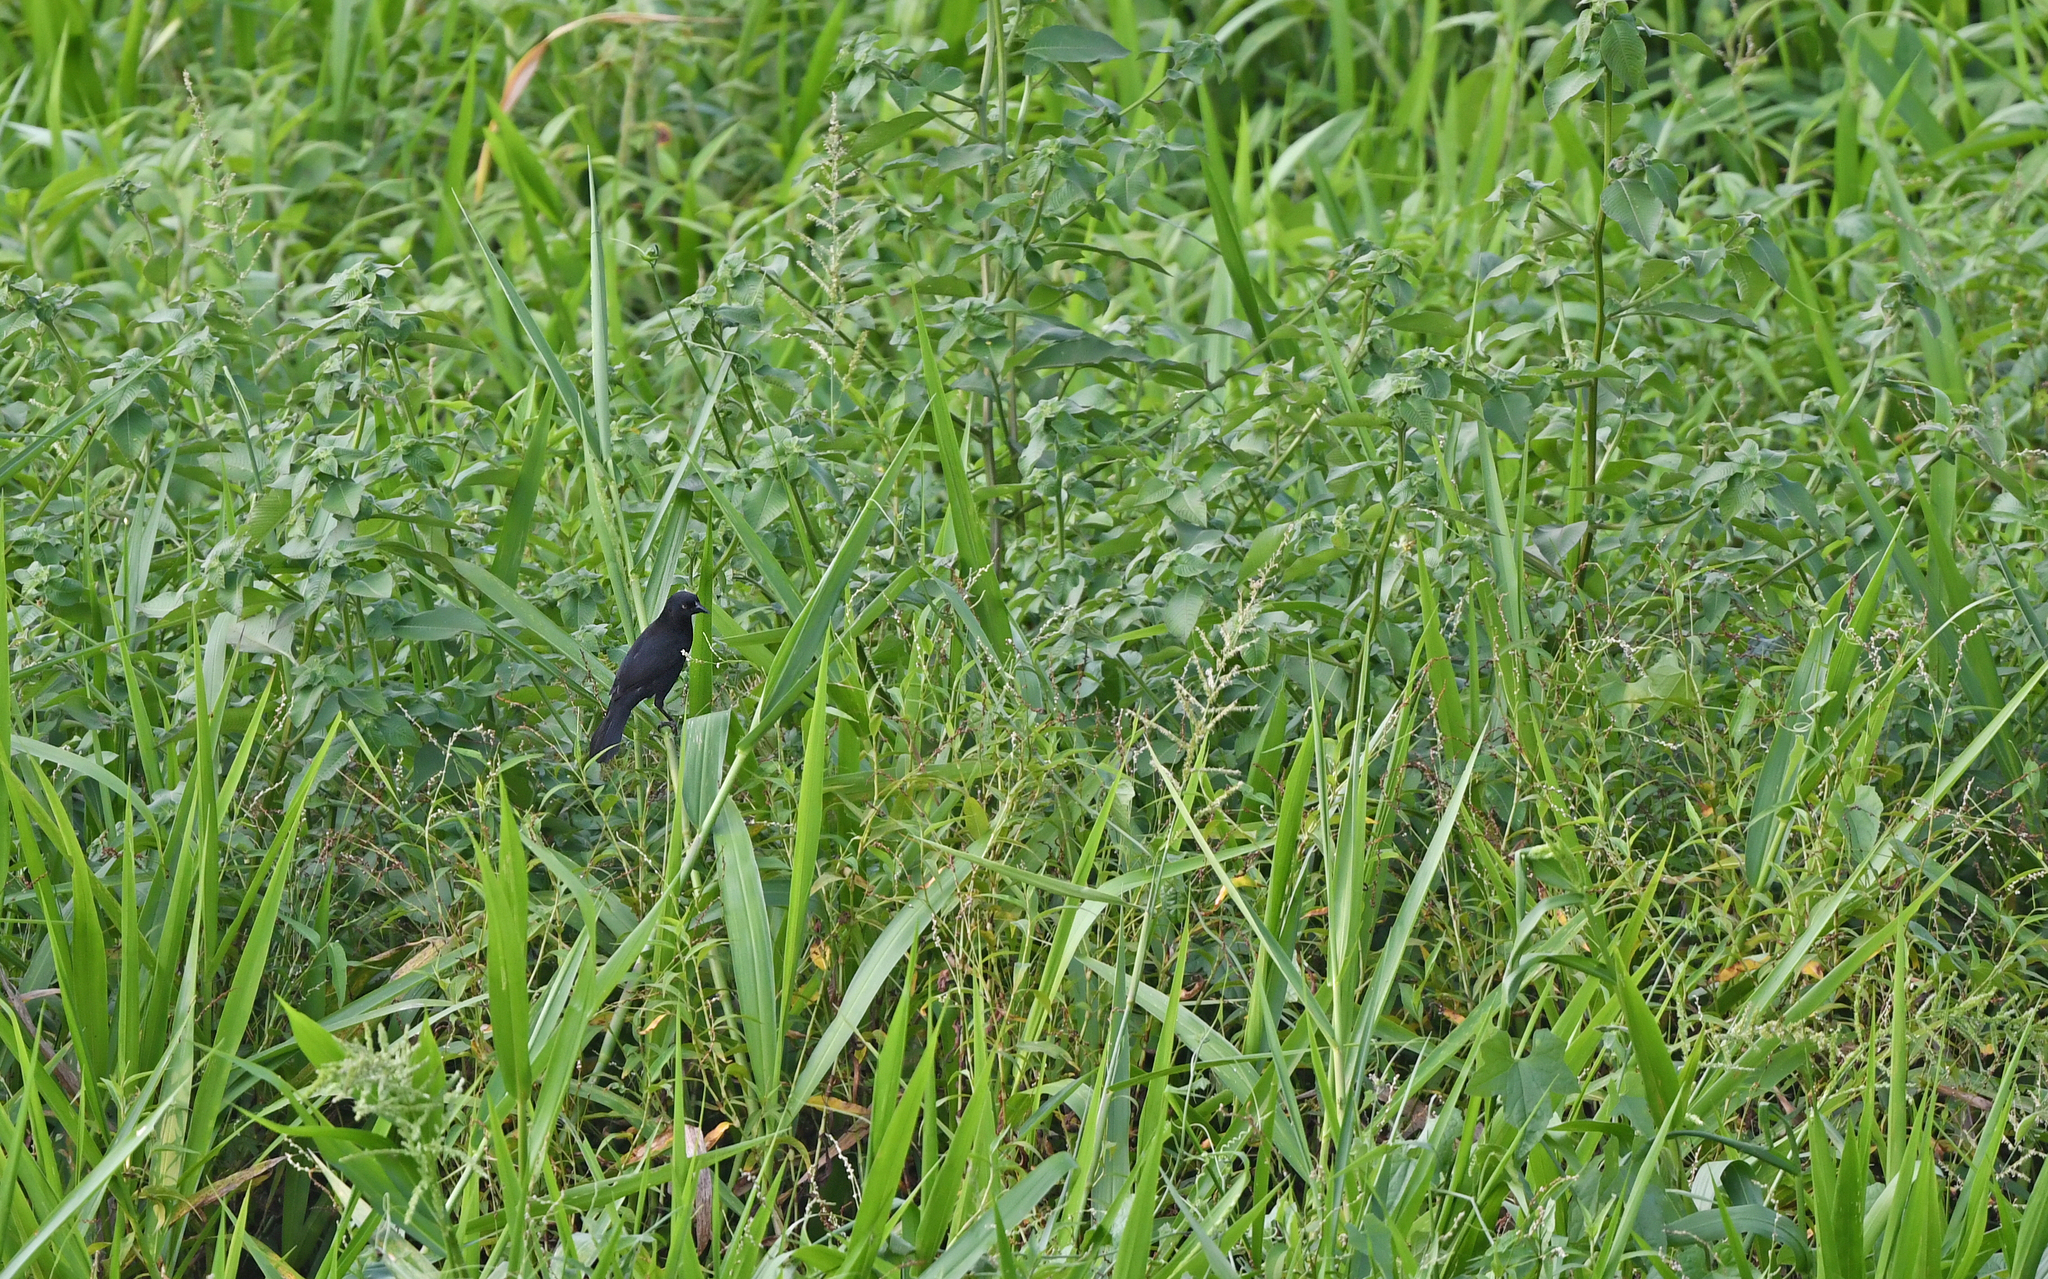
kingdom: Animalia
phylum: Chordata
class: Aves
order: Passeriformes
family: Icteridae
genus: Agelasticus
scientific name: Agelasticus xanthophthalmus
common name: Pale-eyed blackbird
